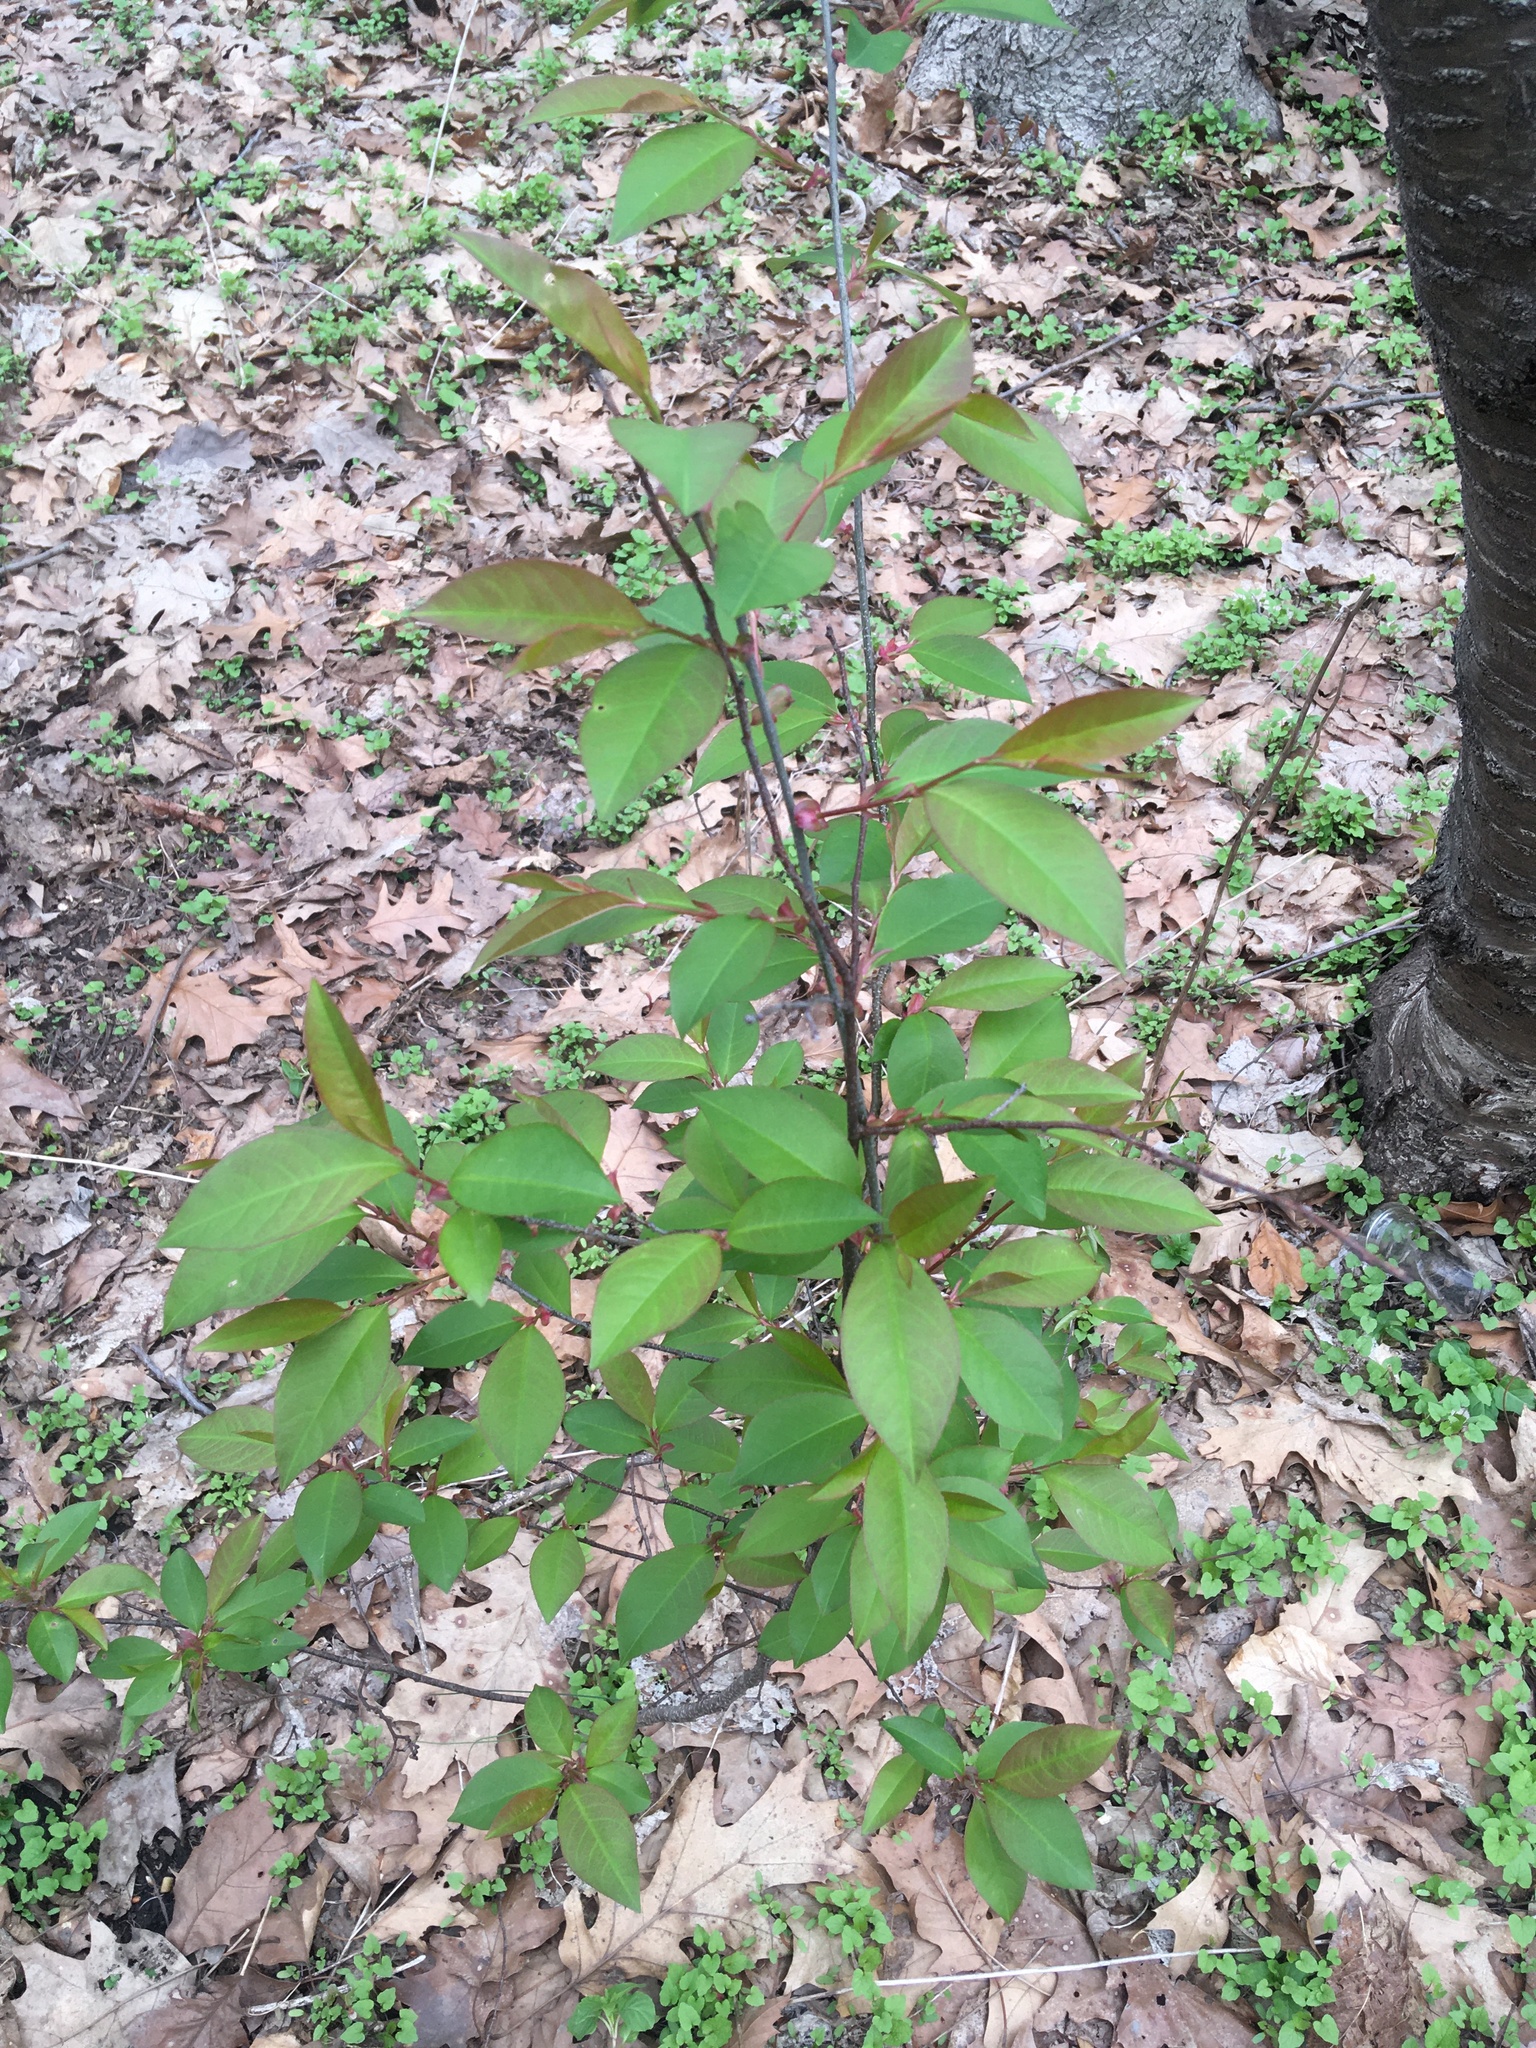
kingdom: Plantae
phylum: Tracheophyta
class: Magnoliopsida
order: Rosales
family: Rosaceae
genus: Malus
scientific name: Malus hupehensis
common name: Chinese crab apple
